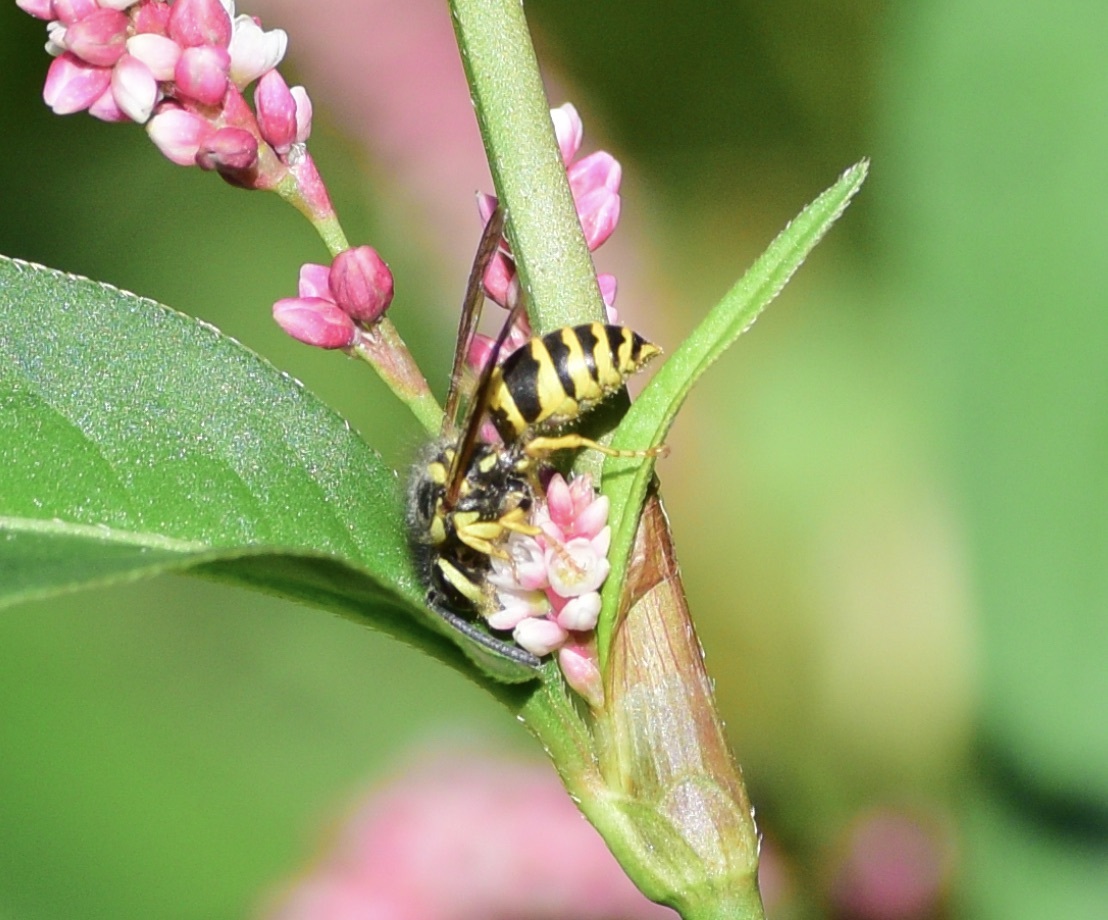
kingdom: Animalia
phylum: Arthropoda
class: Insecta
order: Hymenoptera
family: Vespidae
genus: Vespula
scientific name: Vespula maculifrons
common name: Eastern yellowjacket
